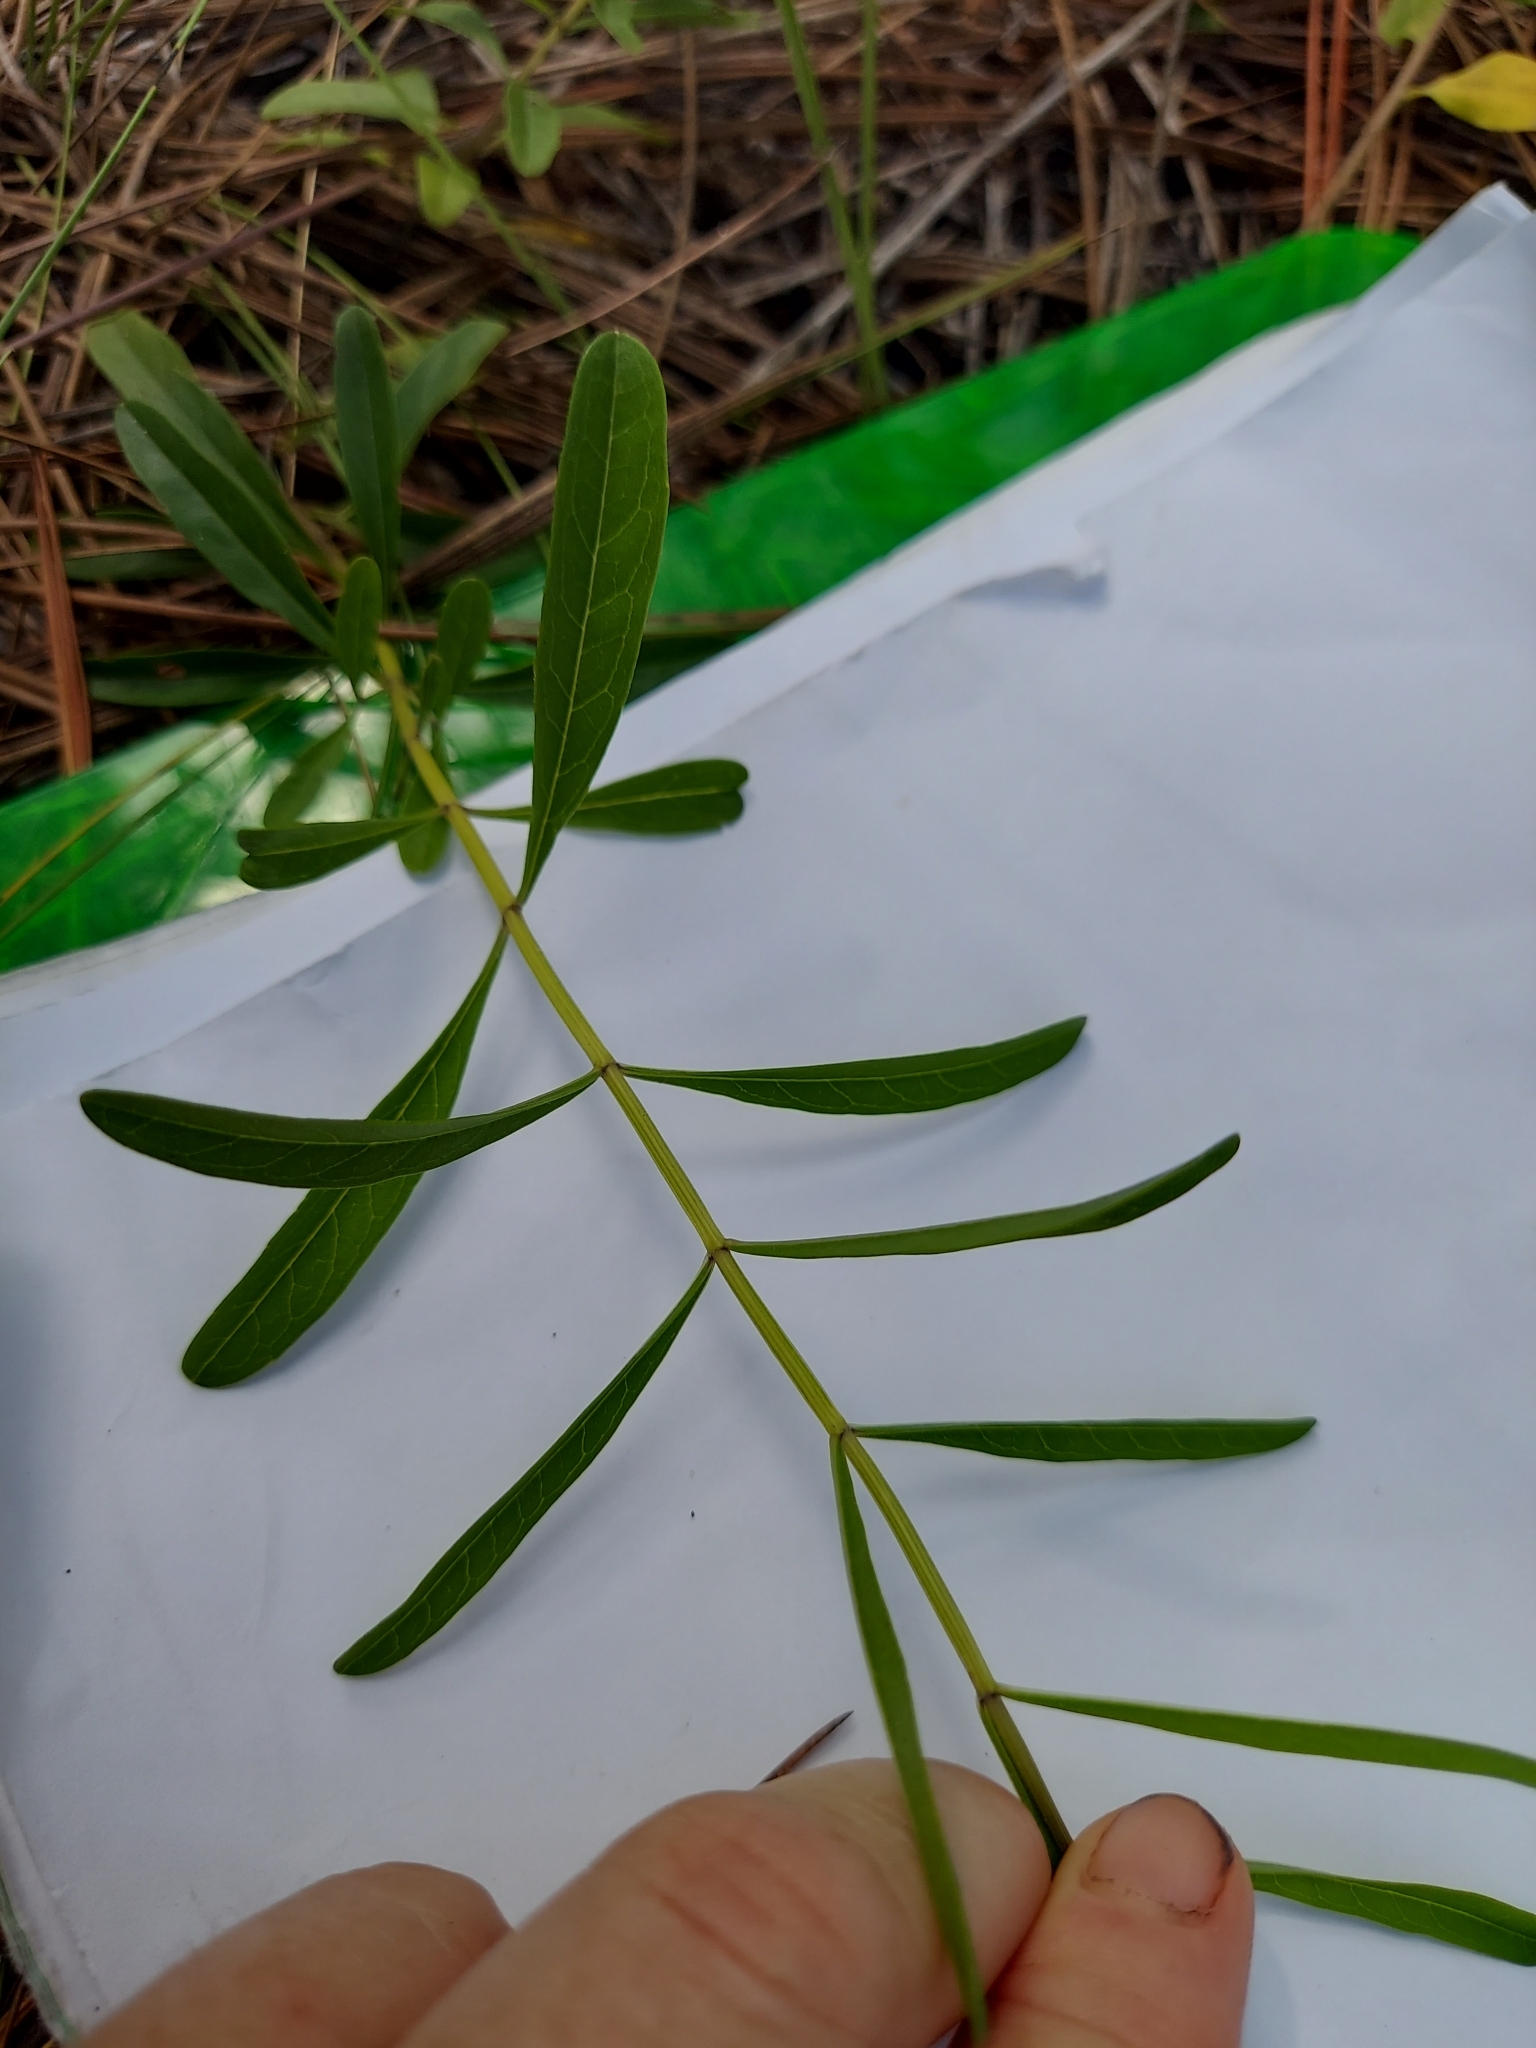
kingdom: Plantae
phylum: Tracheophyta
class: Magnoliopsida
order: Lamiales
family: Lamiaceae
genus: Salvia
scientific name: Salvia azurea
